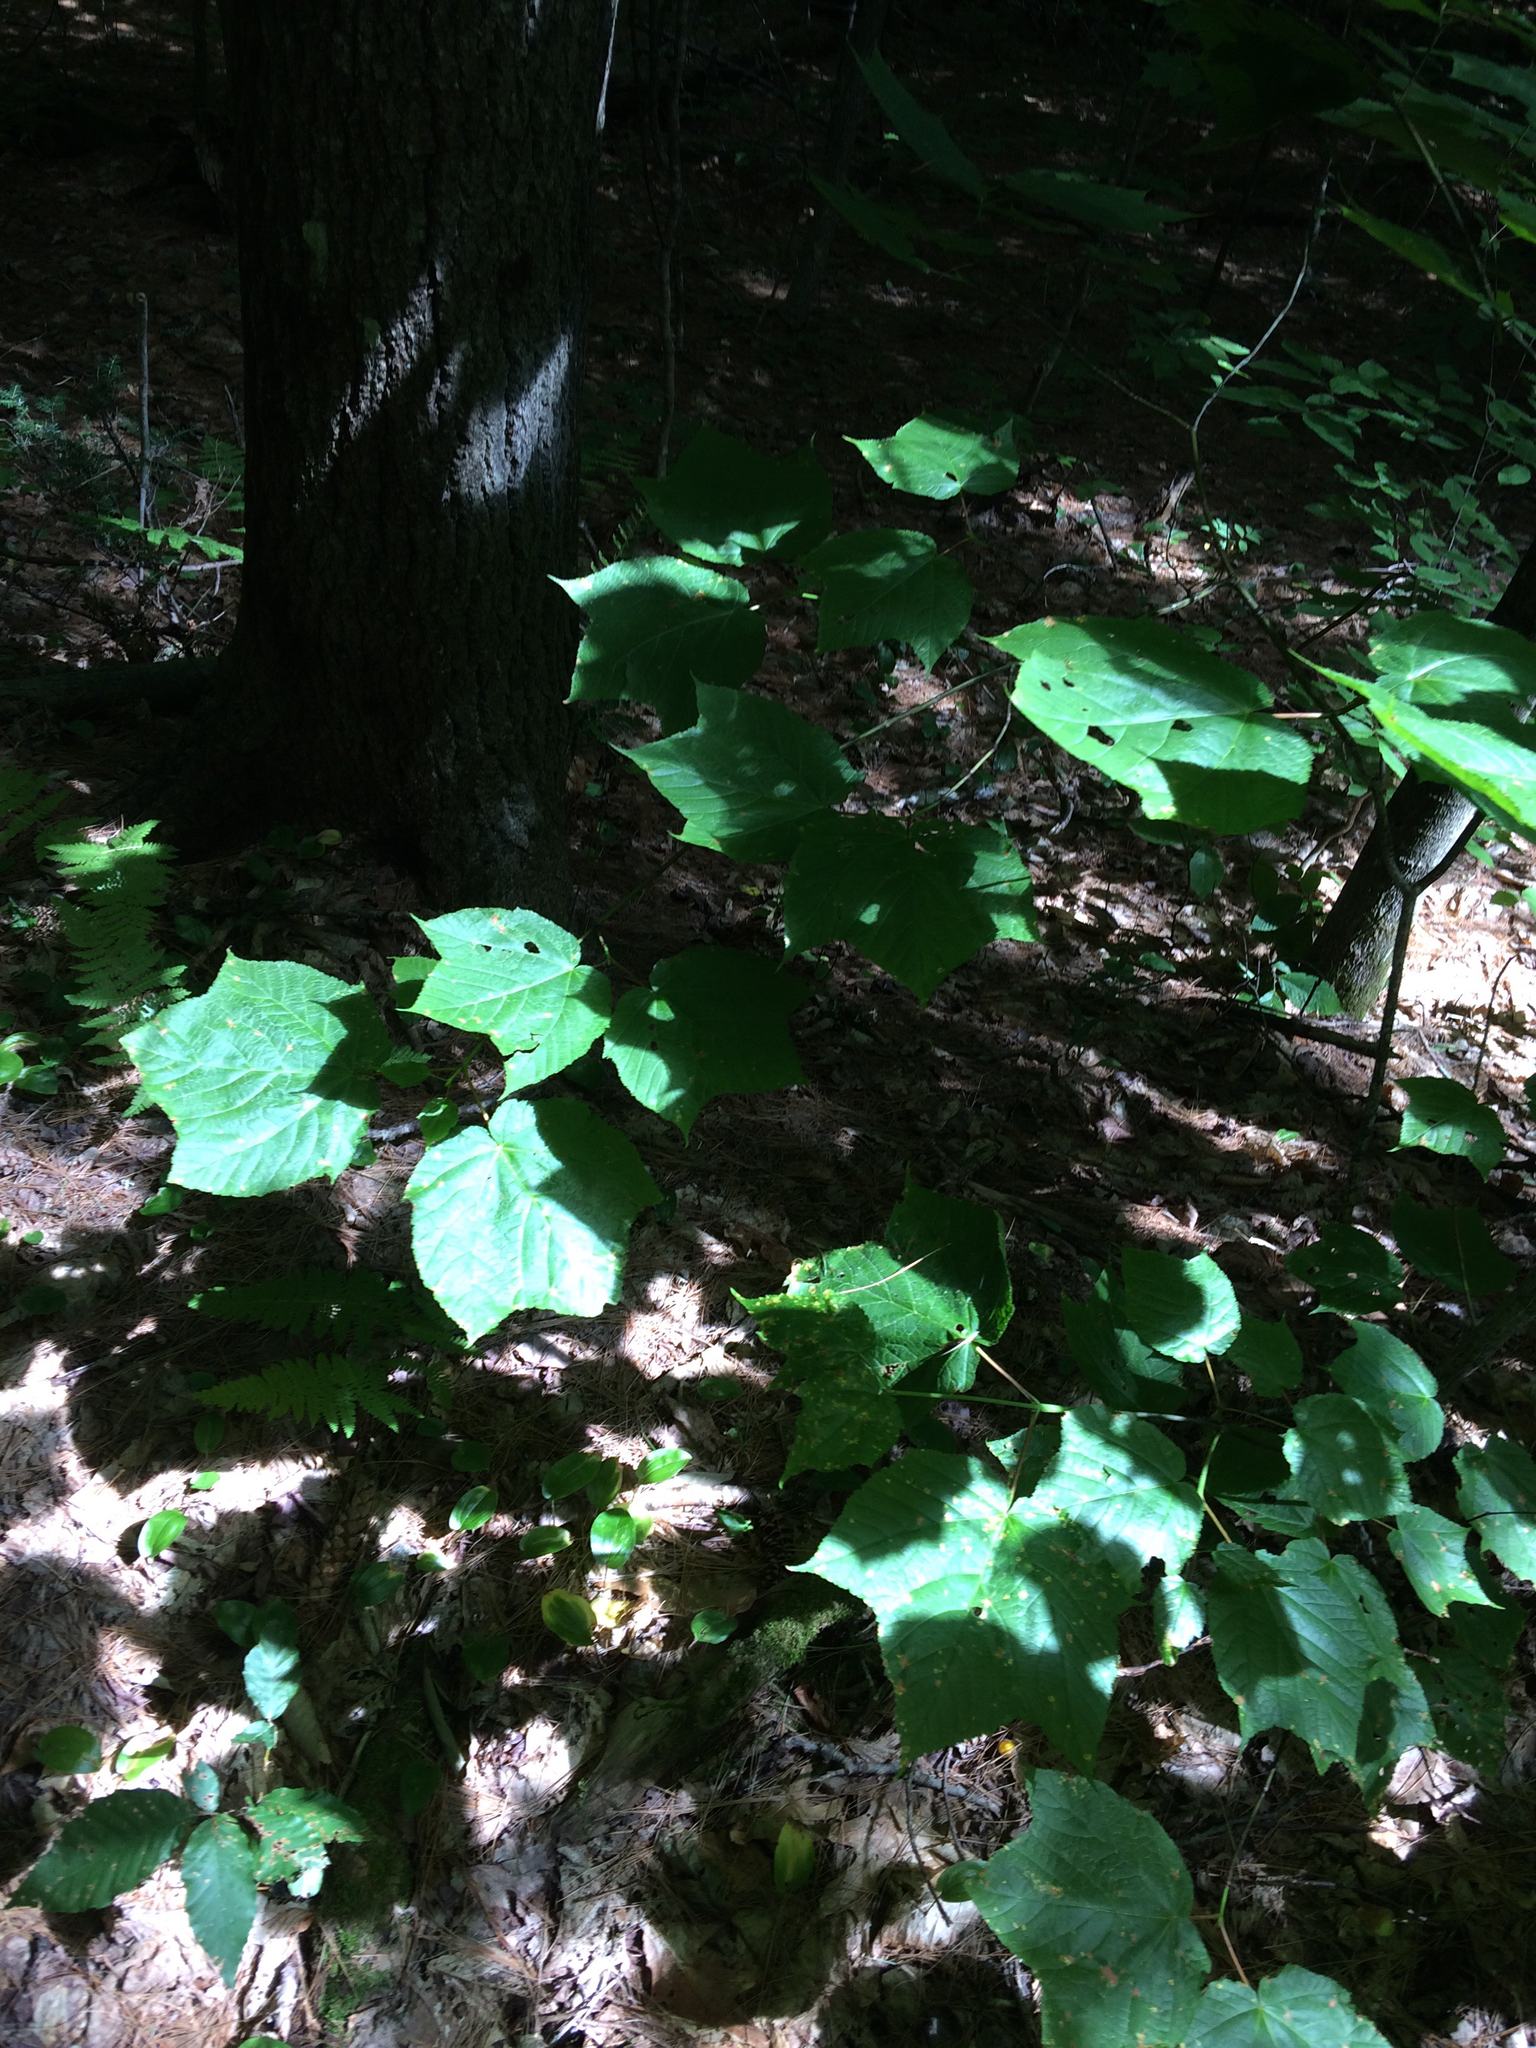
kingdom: Plantae
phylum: Tracheophyta
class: Magnoliopsida
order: Sapindales
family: Sapindaceae
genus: Acer
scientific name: Acer pensylvanicum
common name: Moosewood
